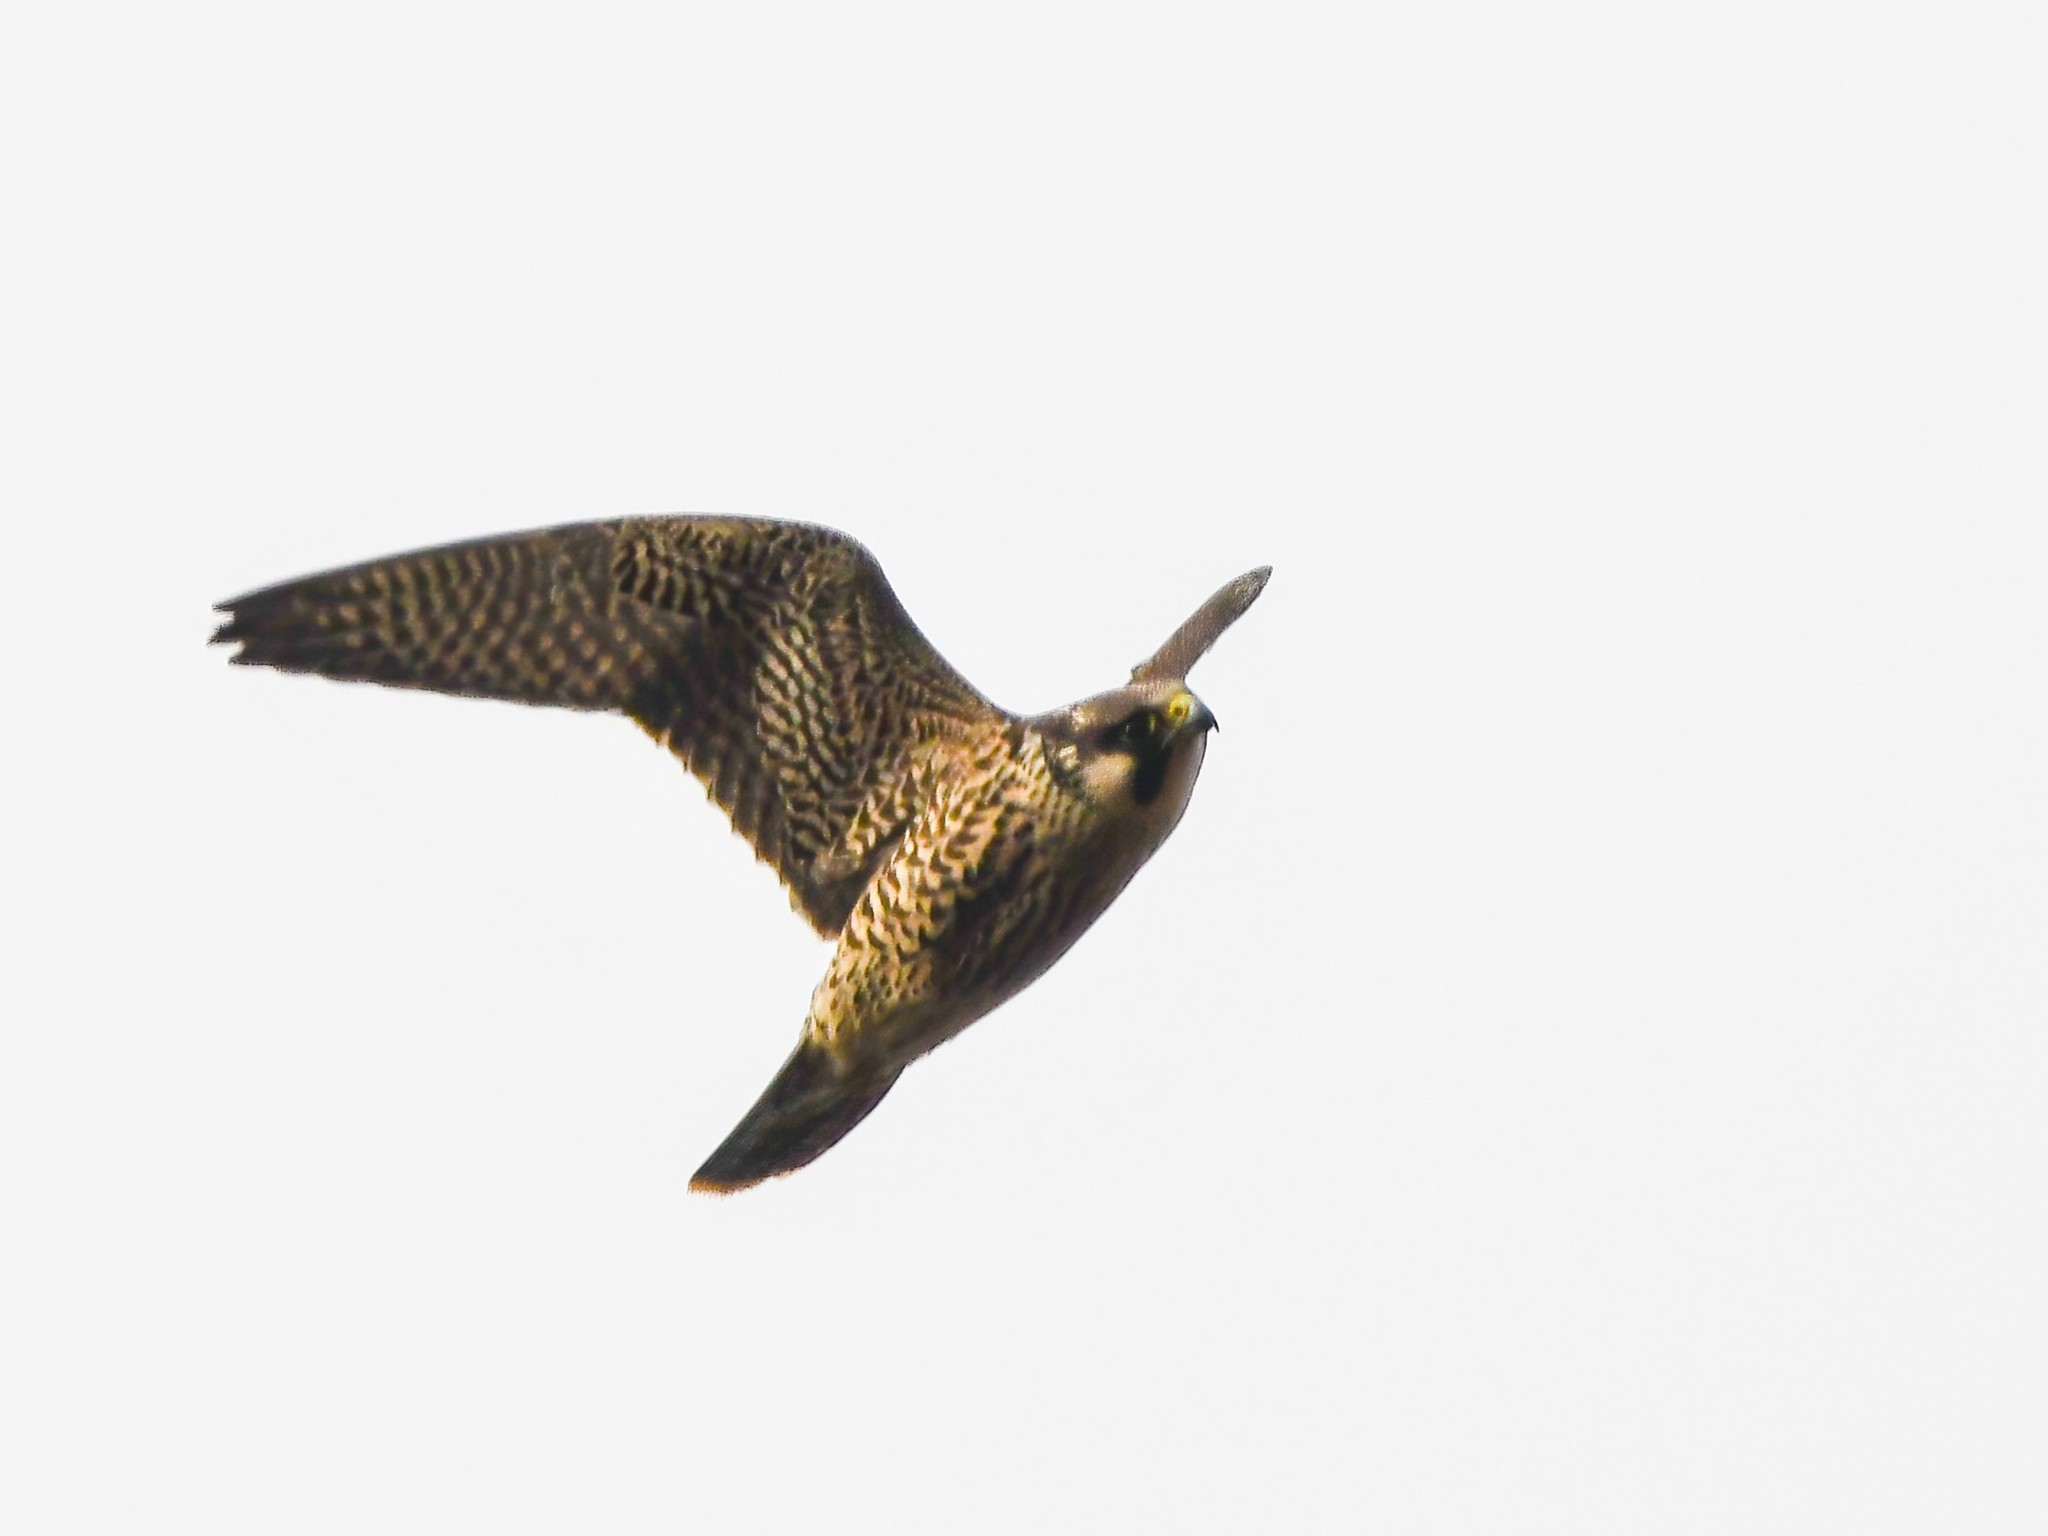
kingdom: Animalia
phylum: Chordata
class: Aves
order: Falconiformes
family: Falconidae
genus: Falco
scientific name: Falco peregrinus
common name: Peregrine falcon
